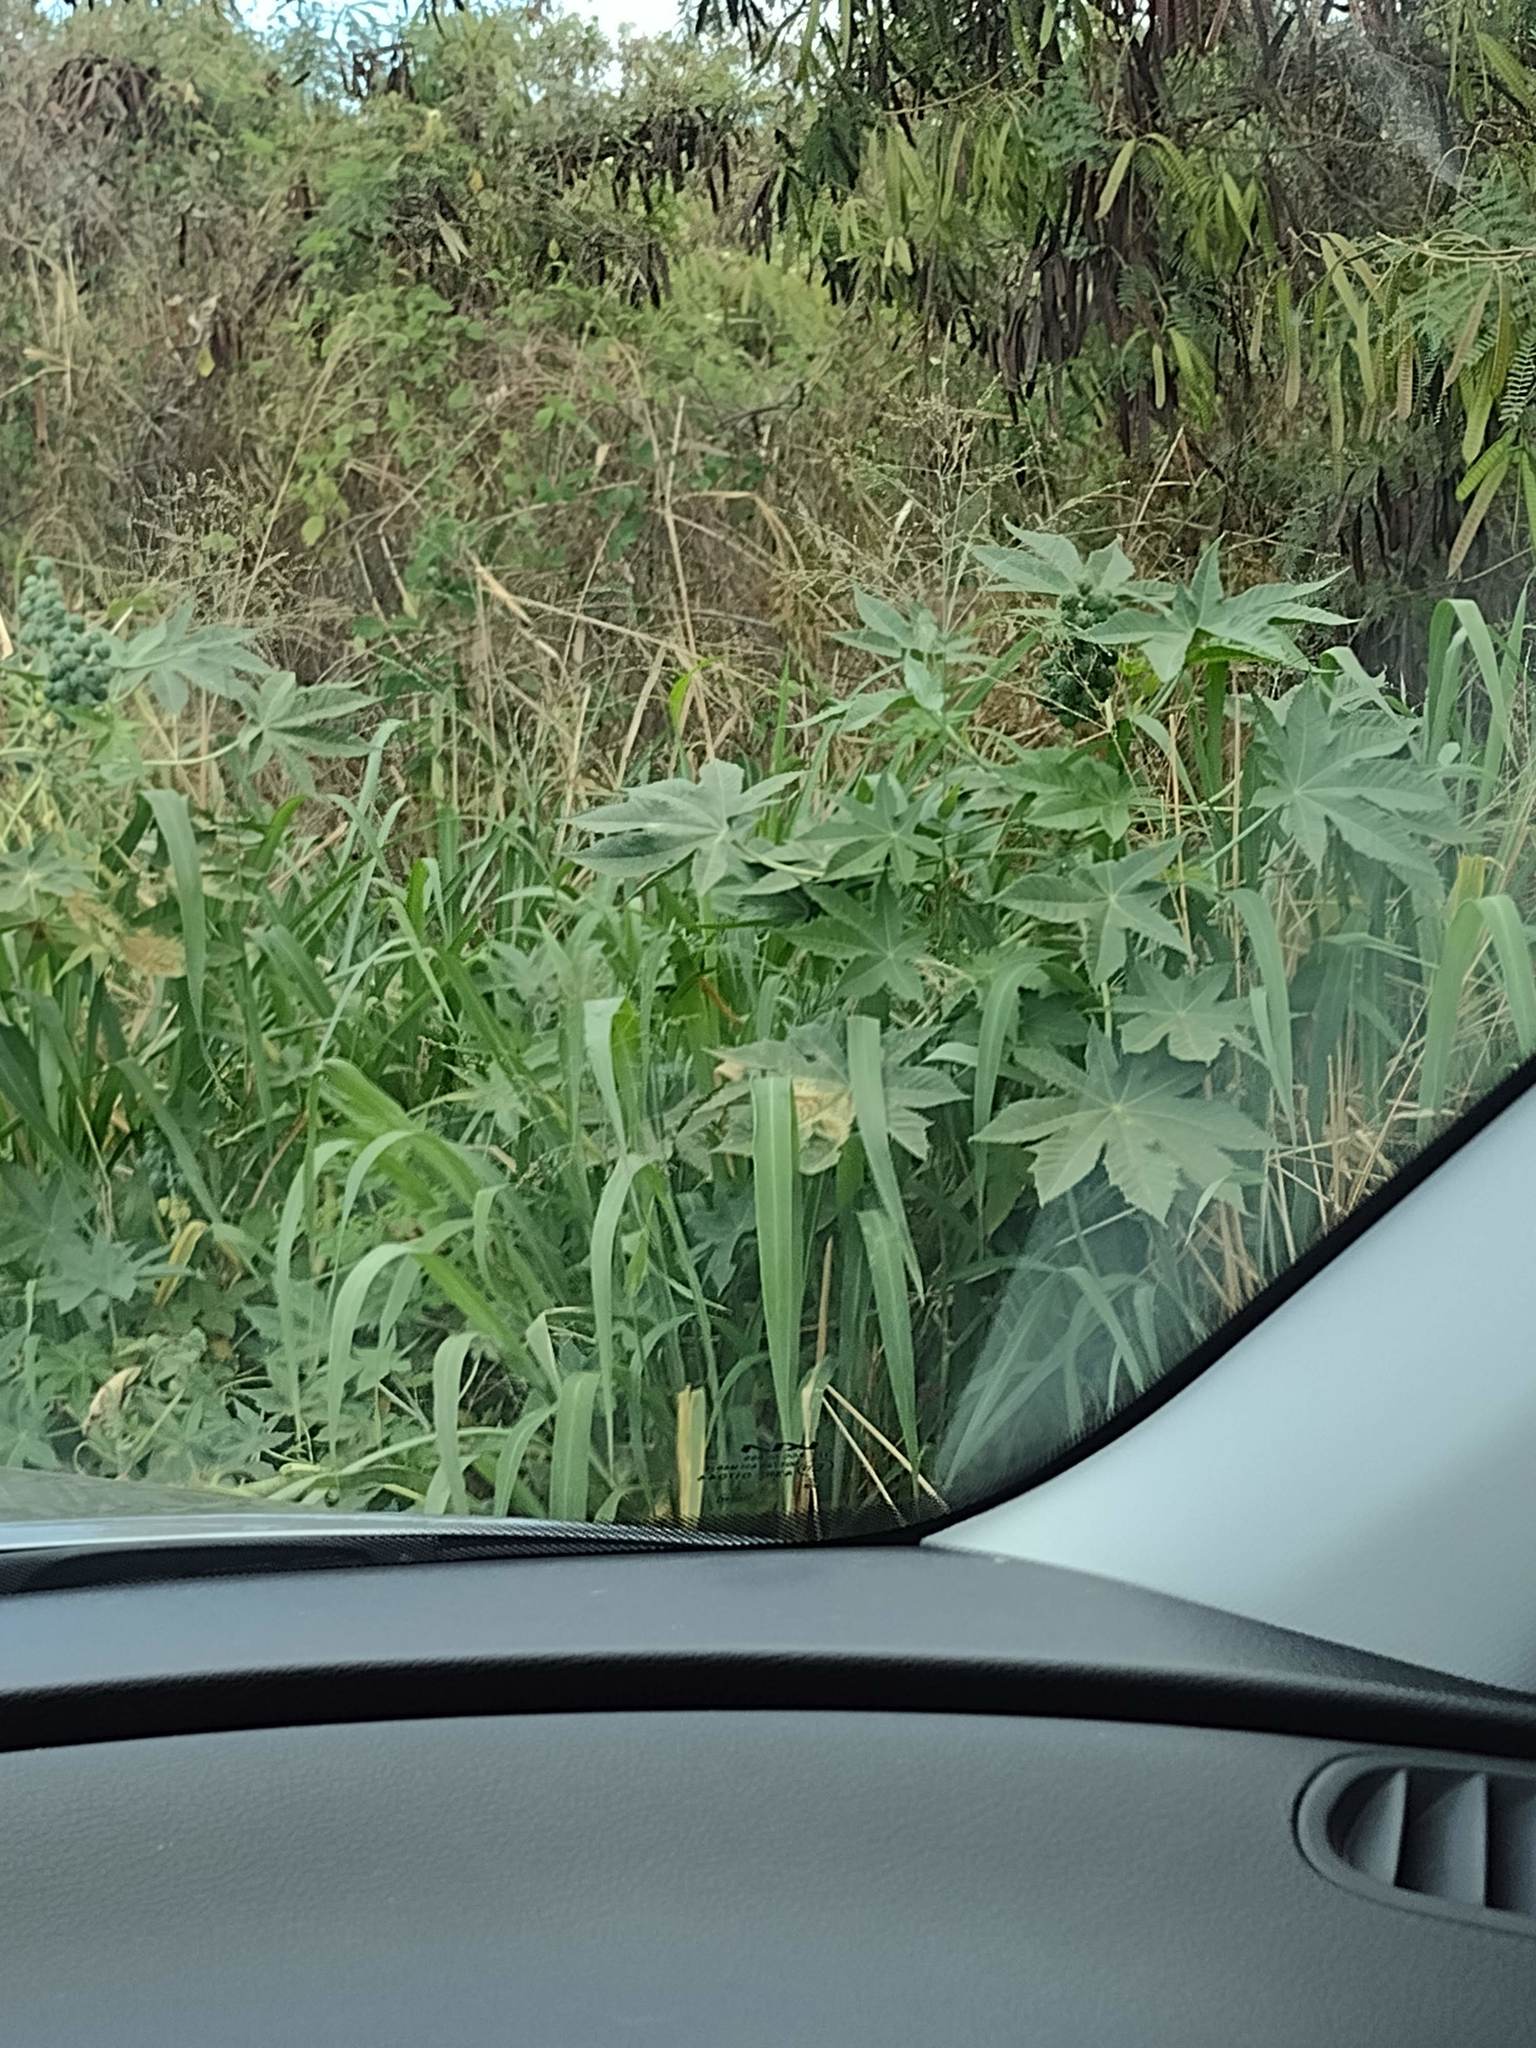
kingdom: Plantae
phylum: Tracheophyta
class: Magnoliopsida
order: Malpighiales
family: Euphorbiaceae
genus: Ricinus
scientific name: Ricinus communis
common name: Castor-oil-plant
